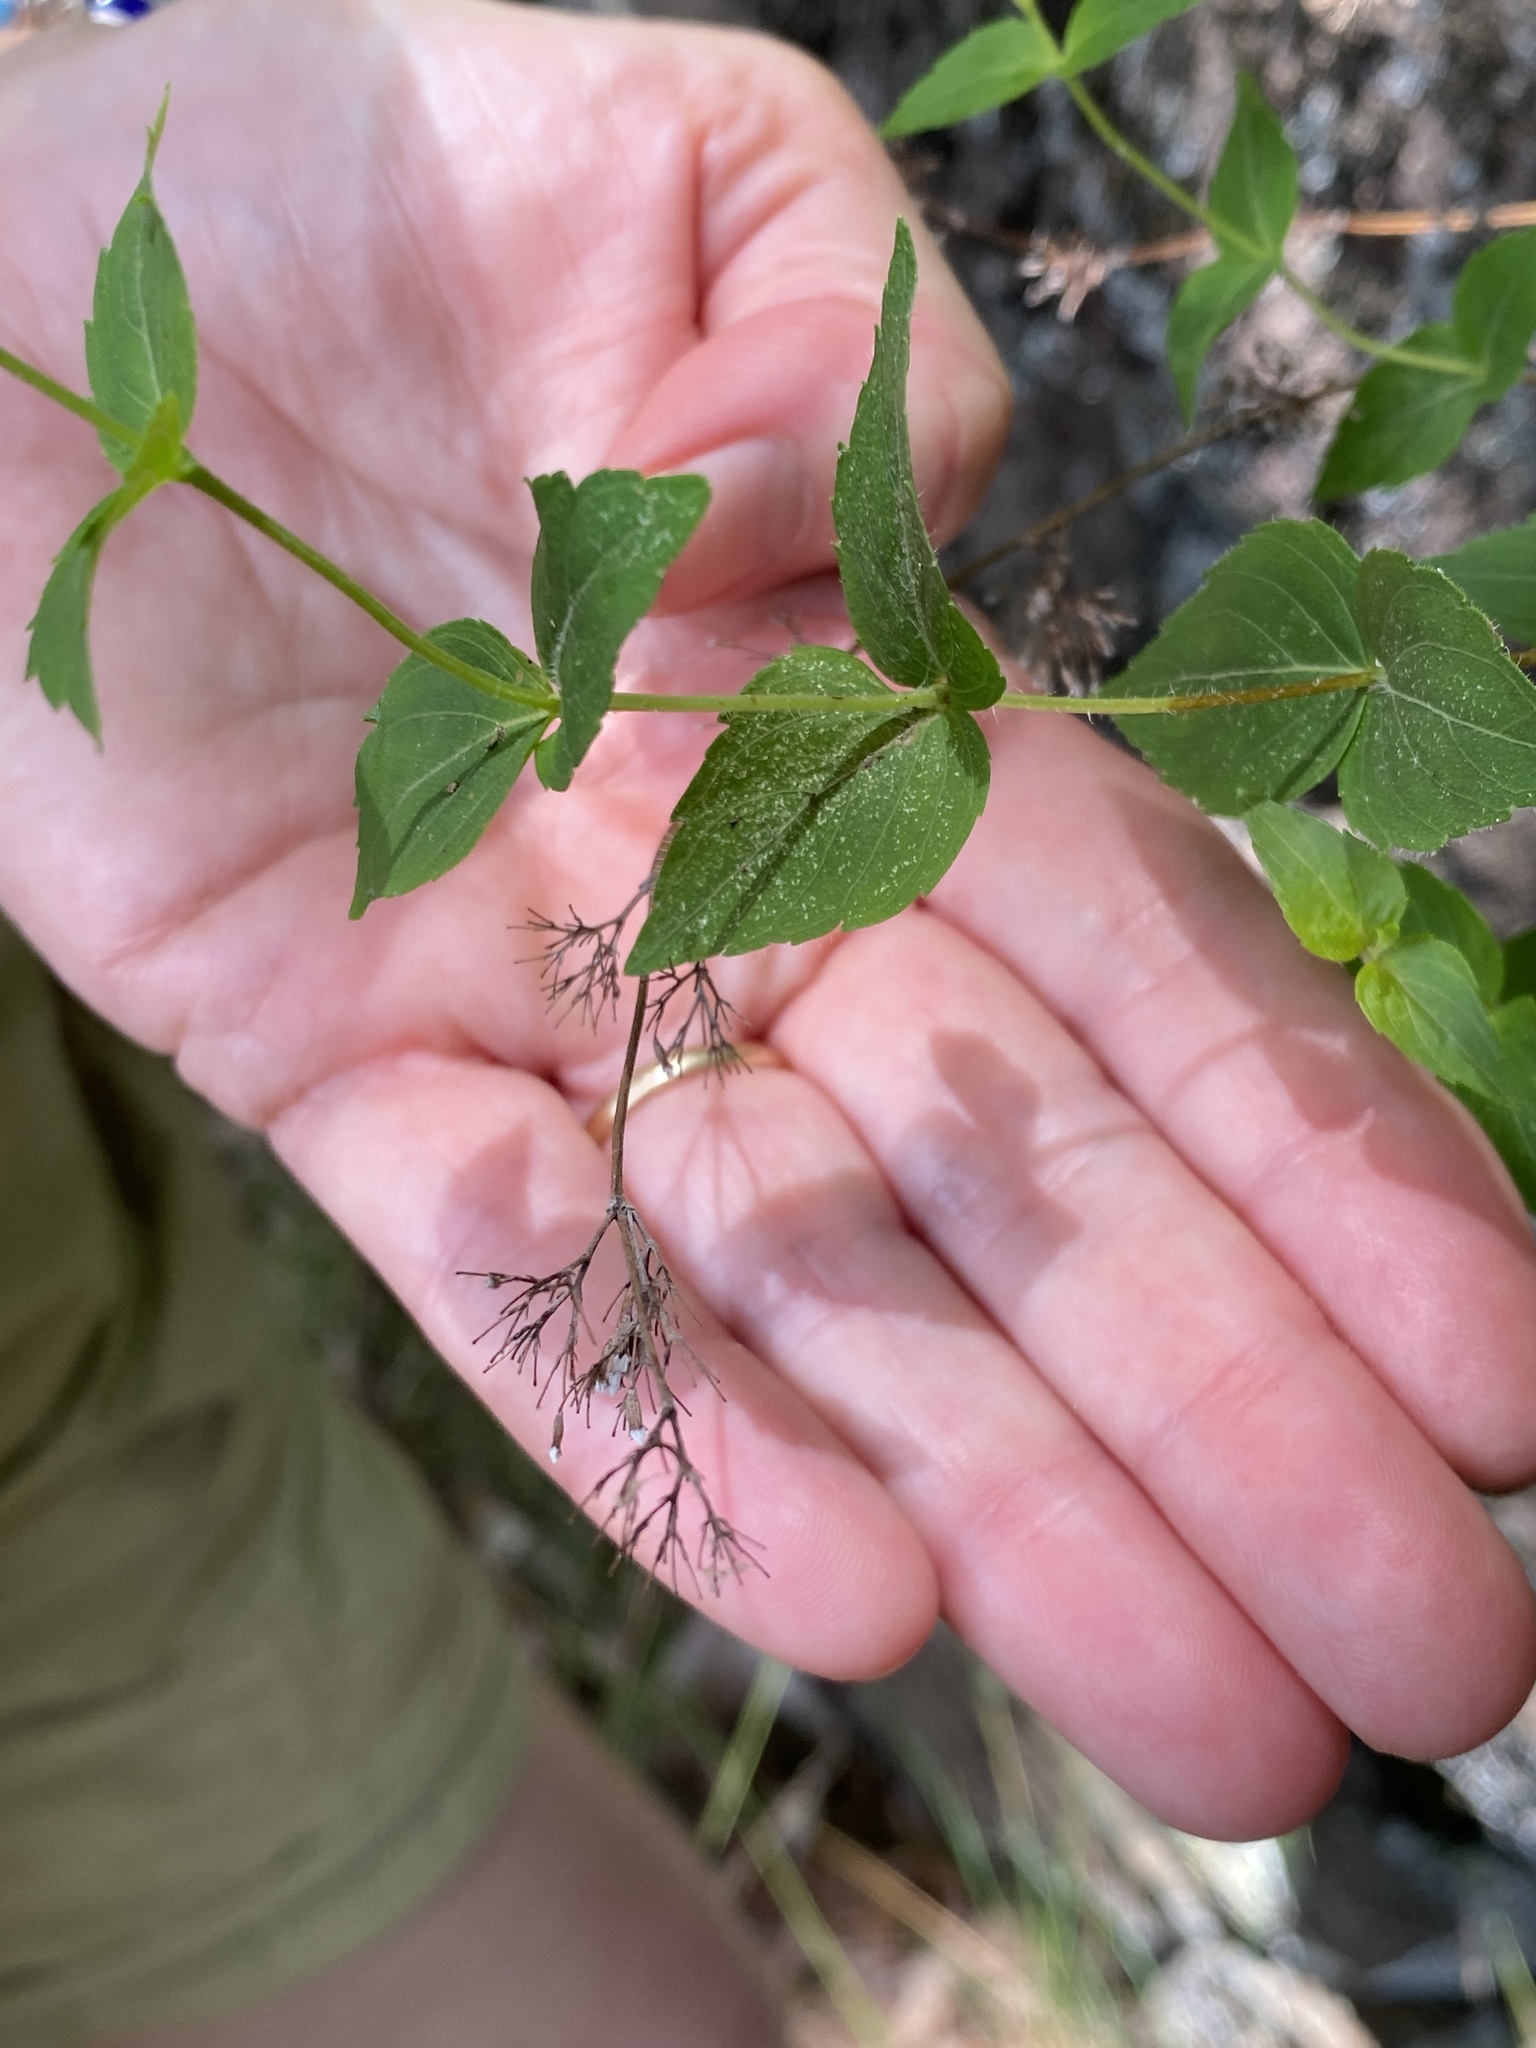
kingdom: Plantae
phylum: Tracheophyta
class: Magnoliopsida
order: Lamiales
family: Lamiaceae
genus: Cunila
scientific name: Cunila origanoides
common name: American dittany
